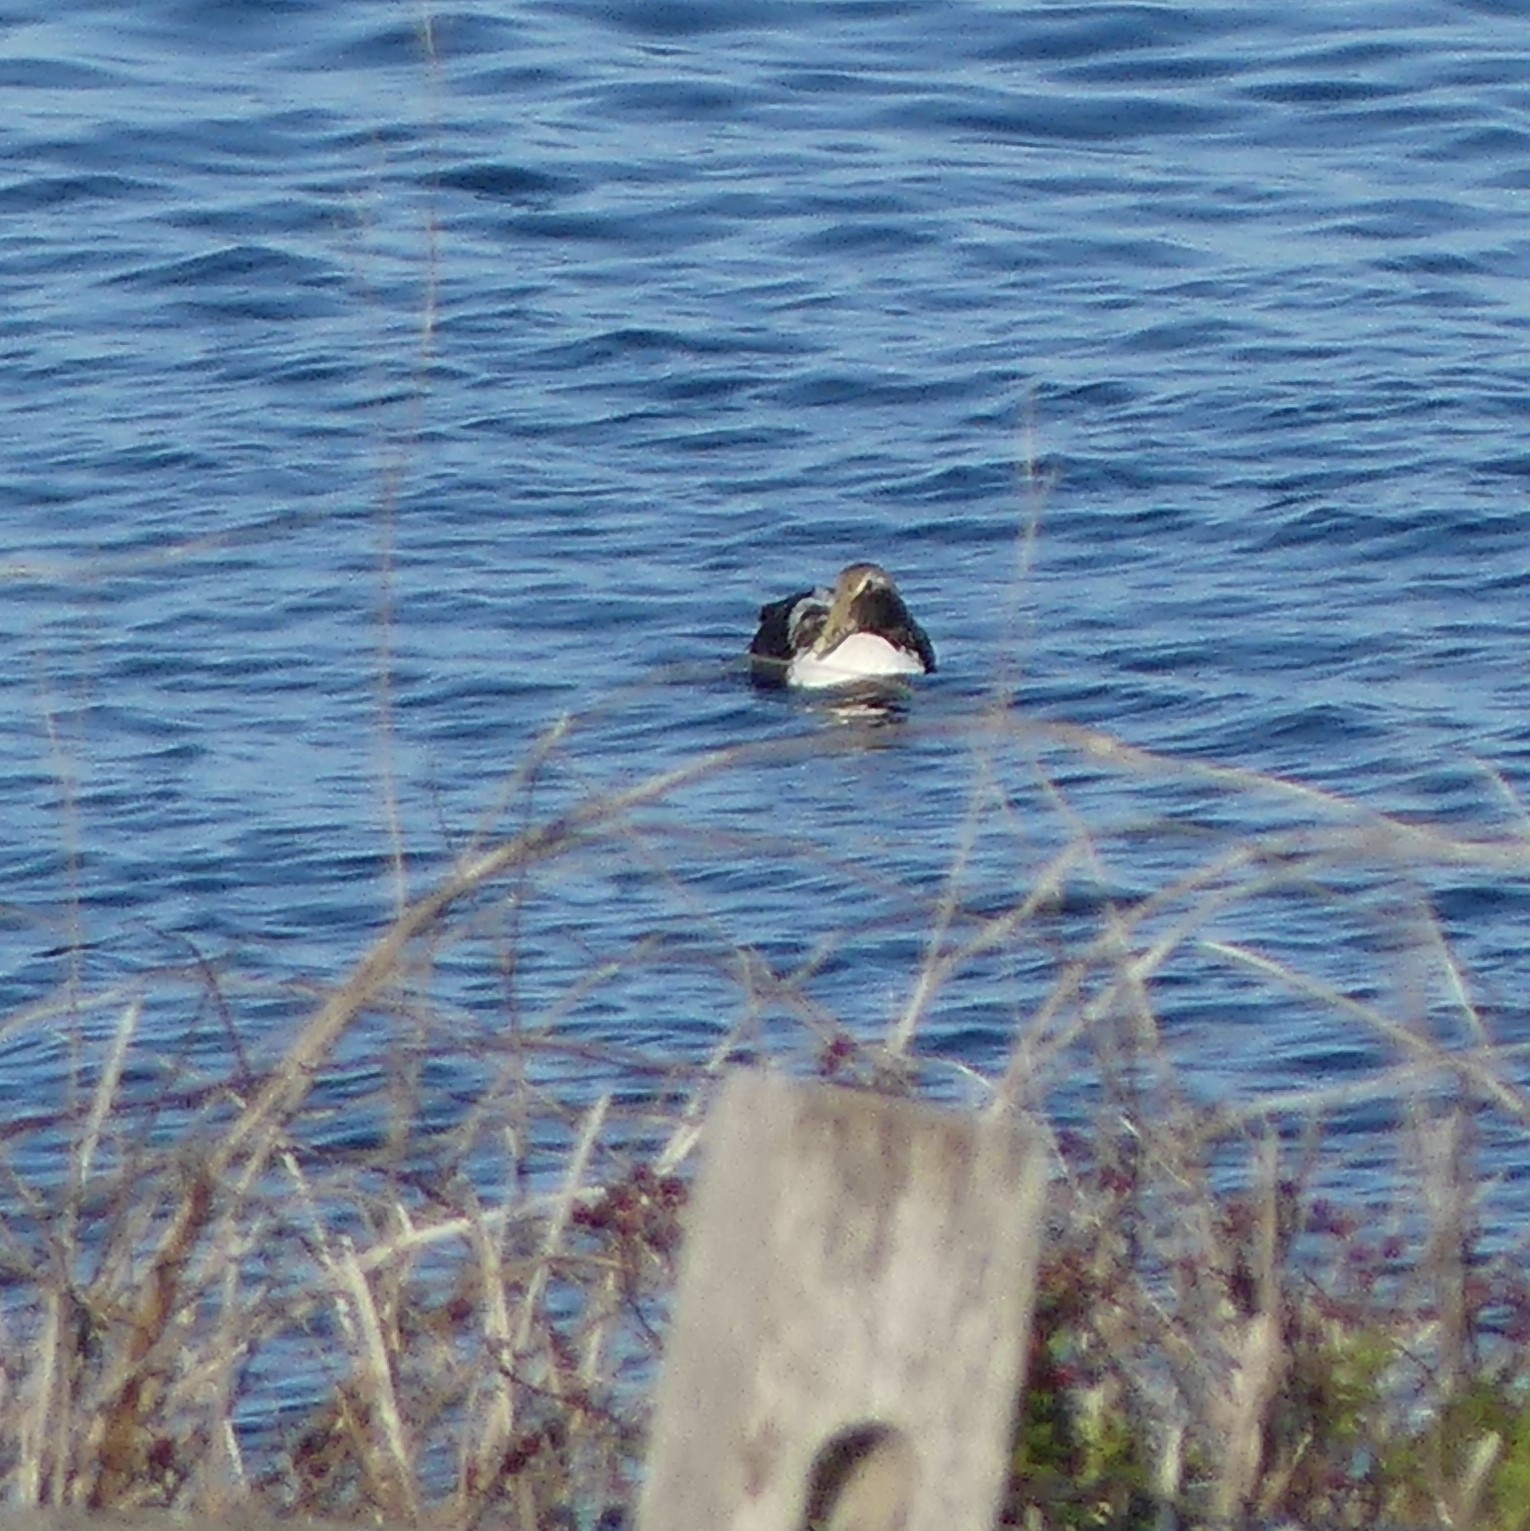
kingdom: Animalia
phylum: Chordata
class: Aves
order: Anseriformes
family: Anatidae
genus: Somateria
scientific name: Somateria mollissima
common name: Common eider
